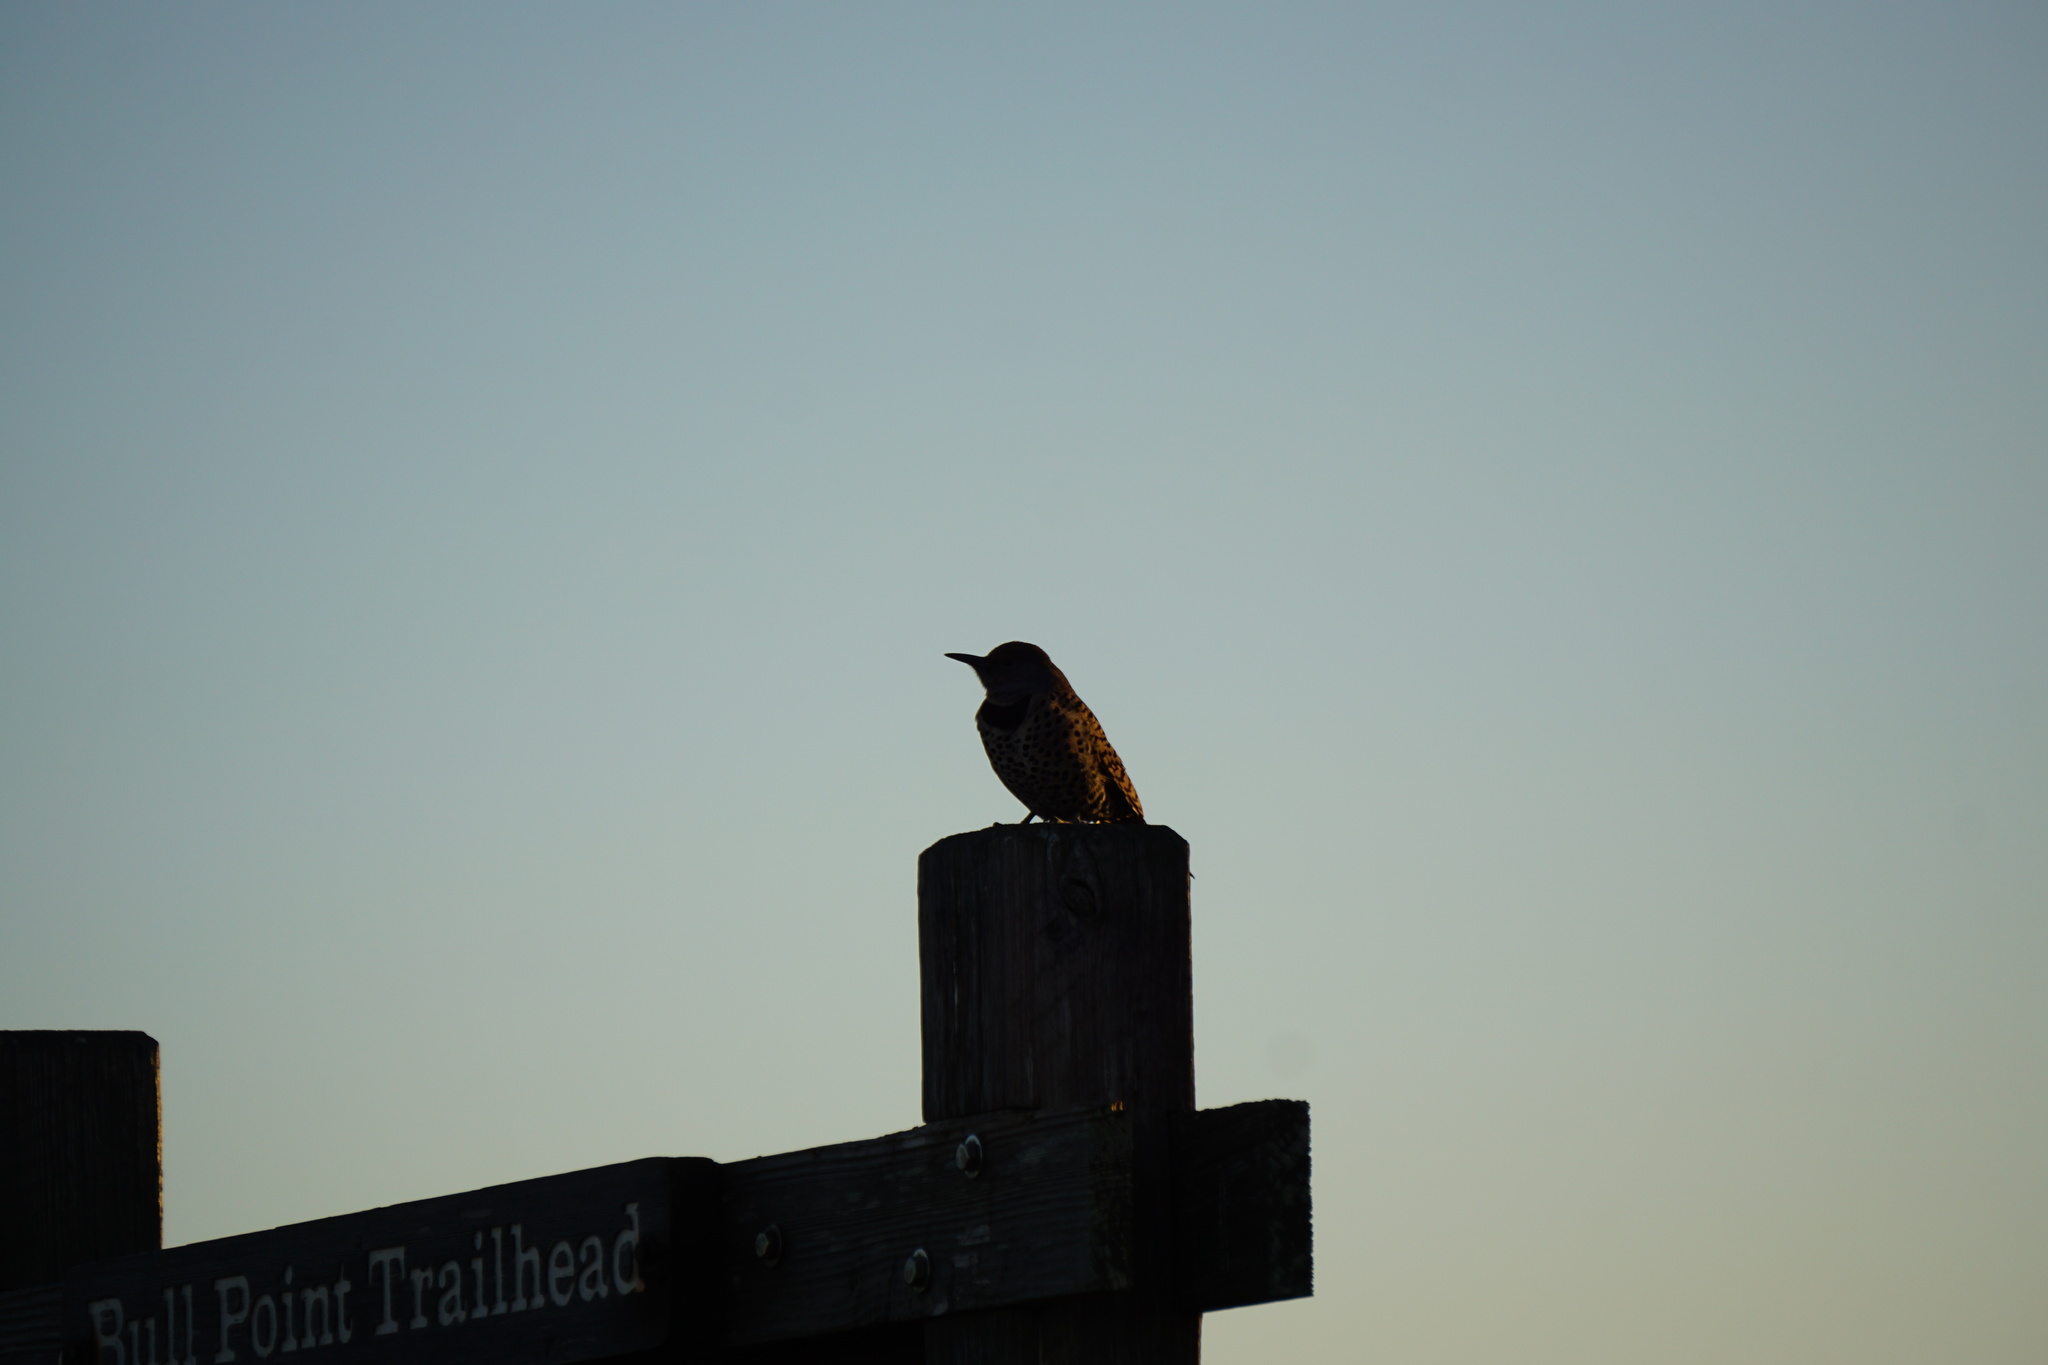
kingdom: Animalia
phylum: Chordata
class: Aves
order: Piciformes
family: Picidae
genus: Colaptes
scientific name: Colaptes auratus
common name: Northern flicker
